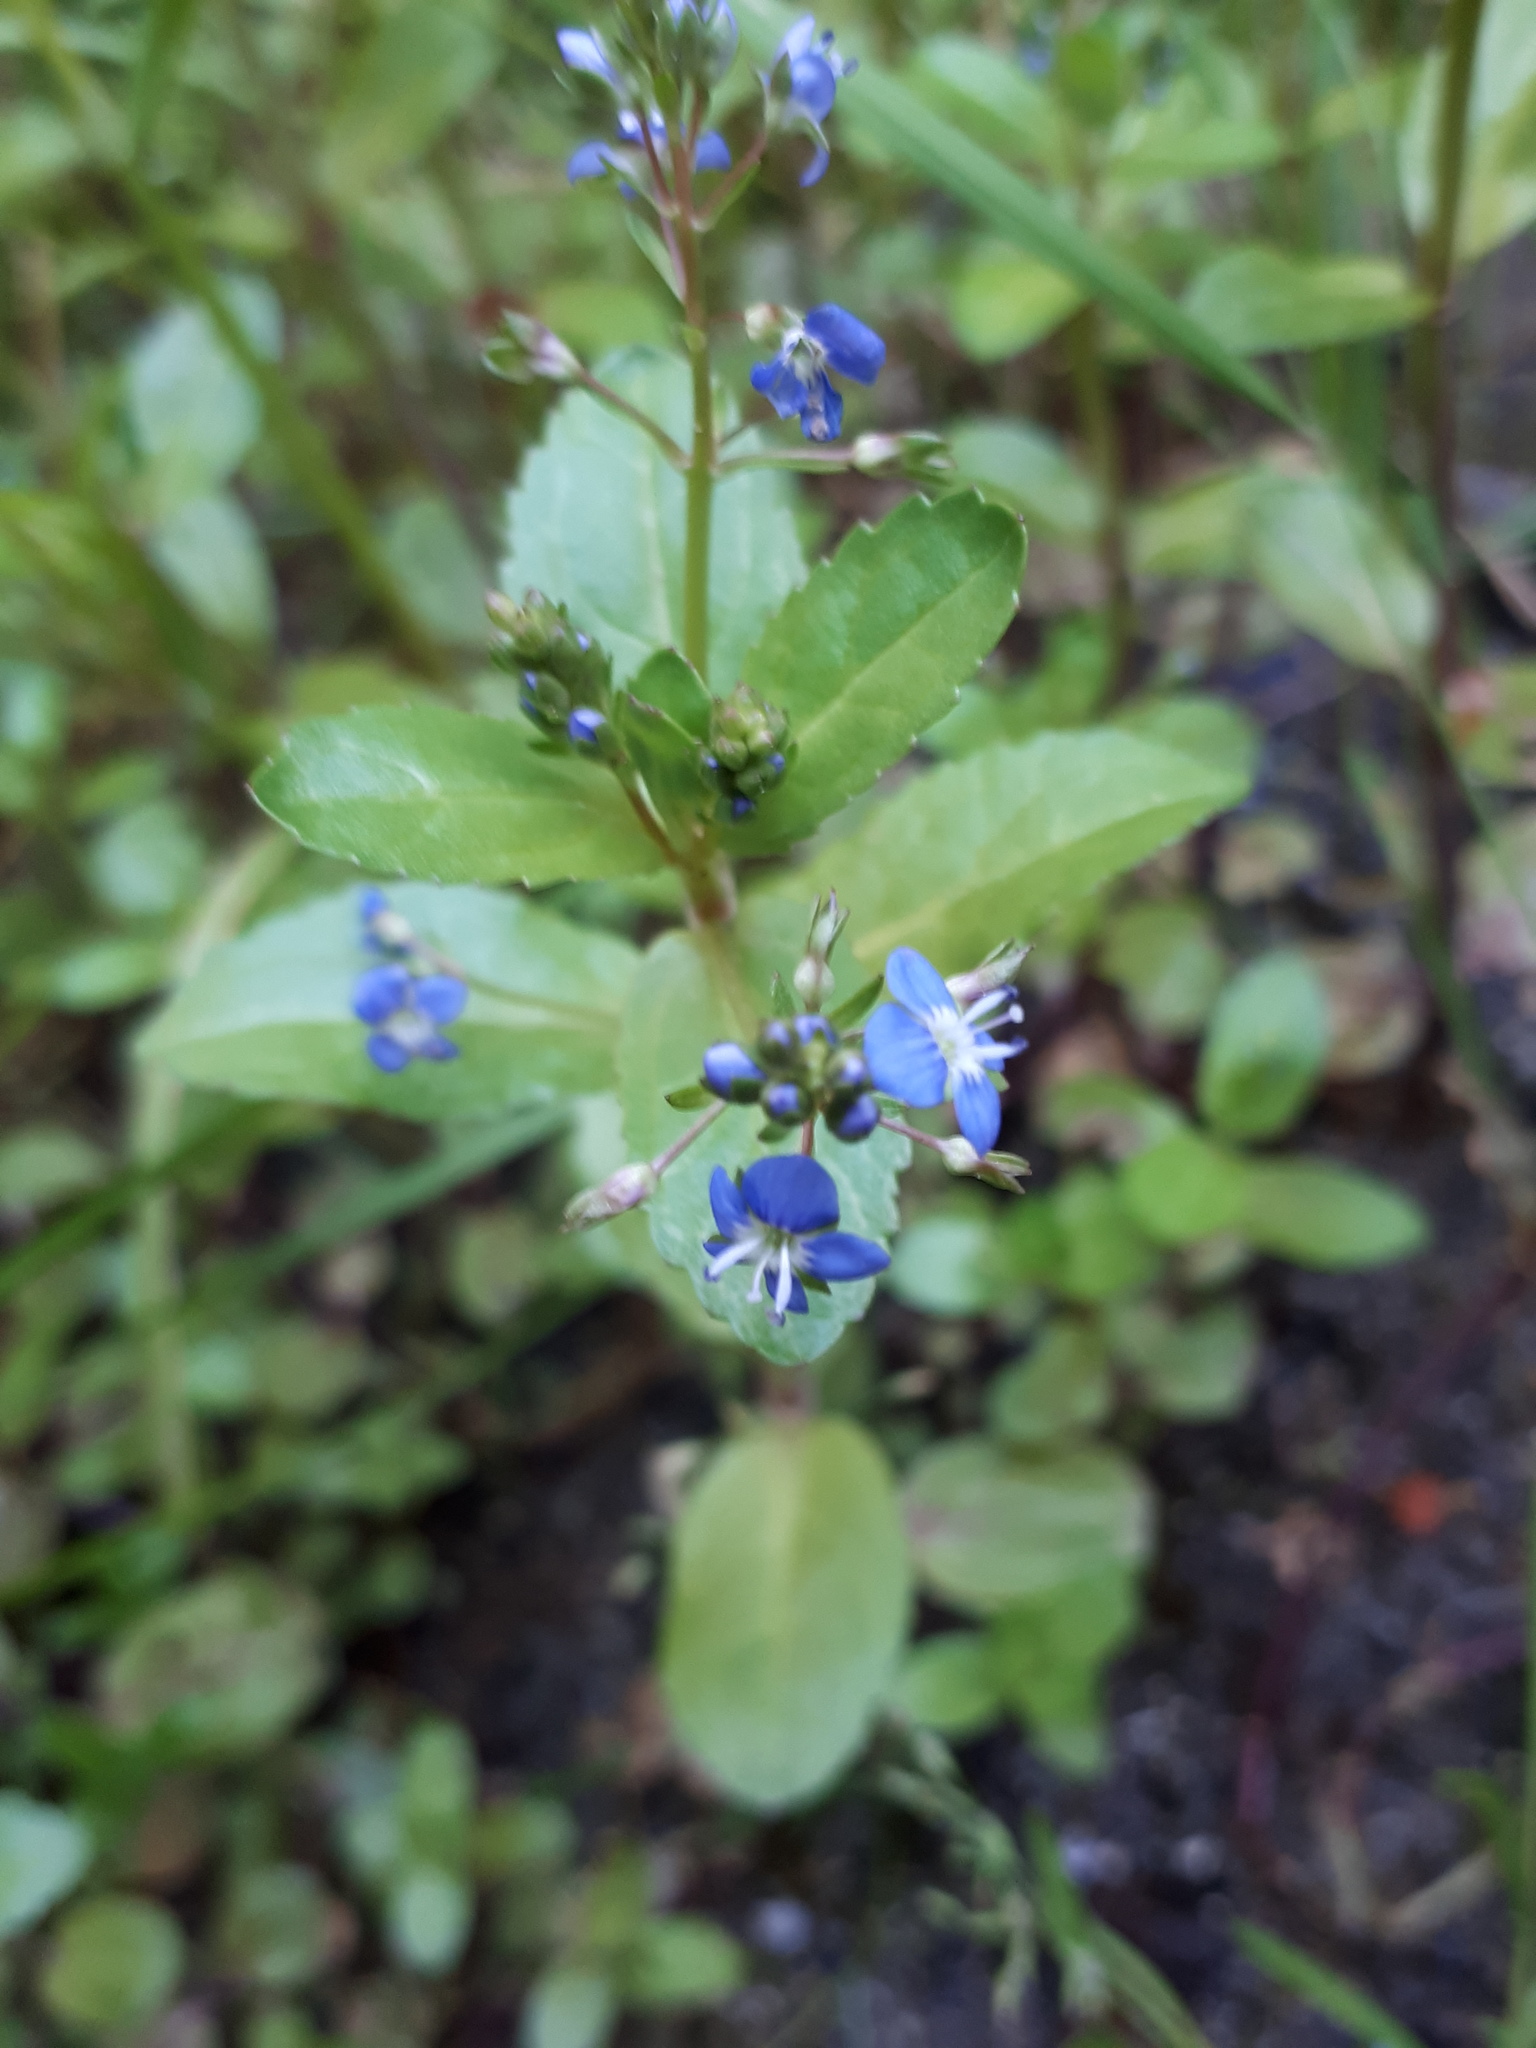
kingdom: Plantae
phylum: Tracheophyta
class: Magnoliopsida
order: Lamiales
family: Plantaginaceae
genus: Veronica
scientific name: Veronica beccabunga
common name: Brooklime
